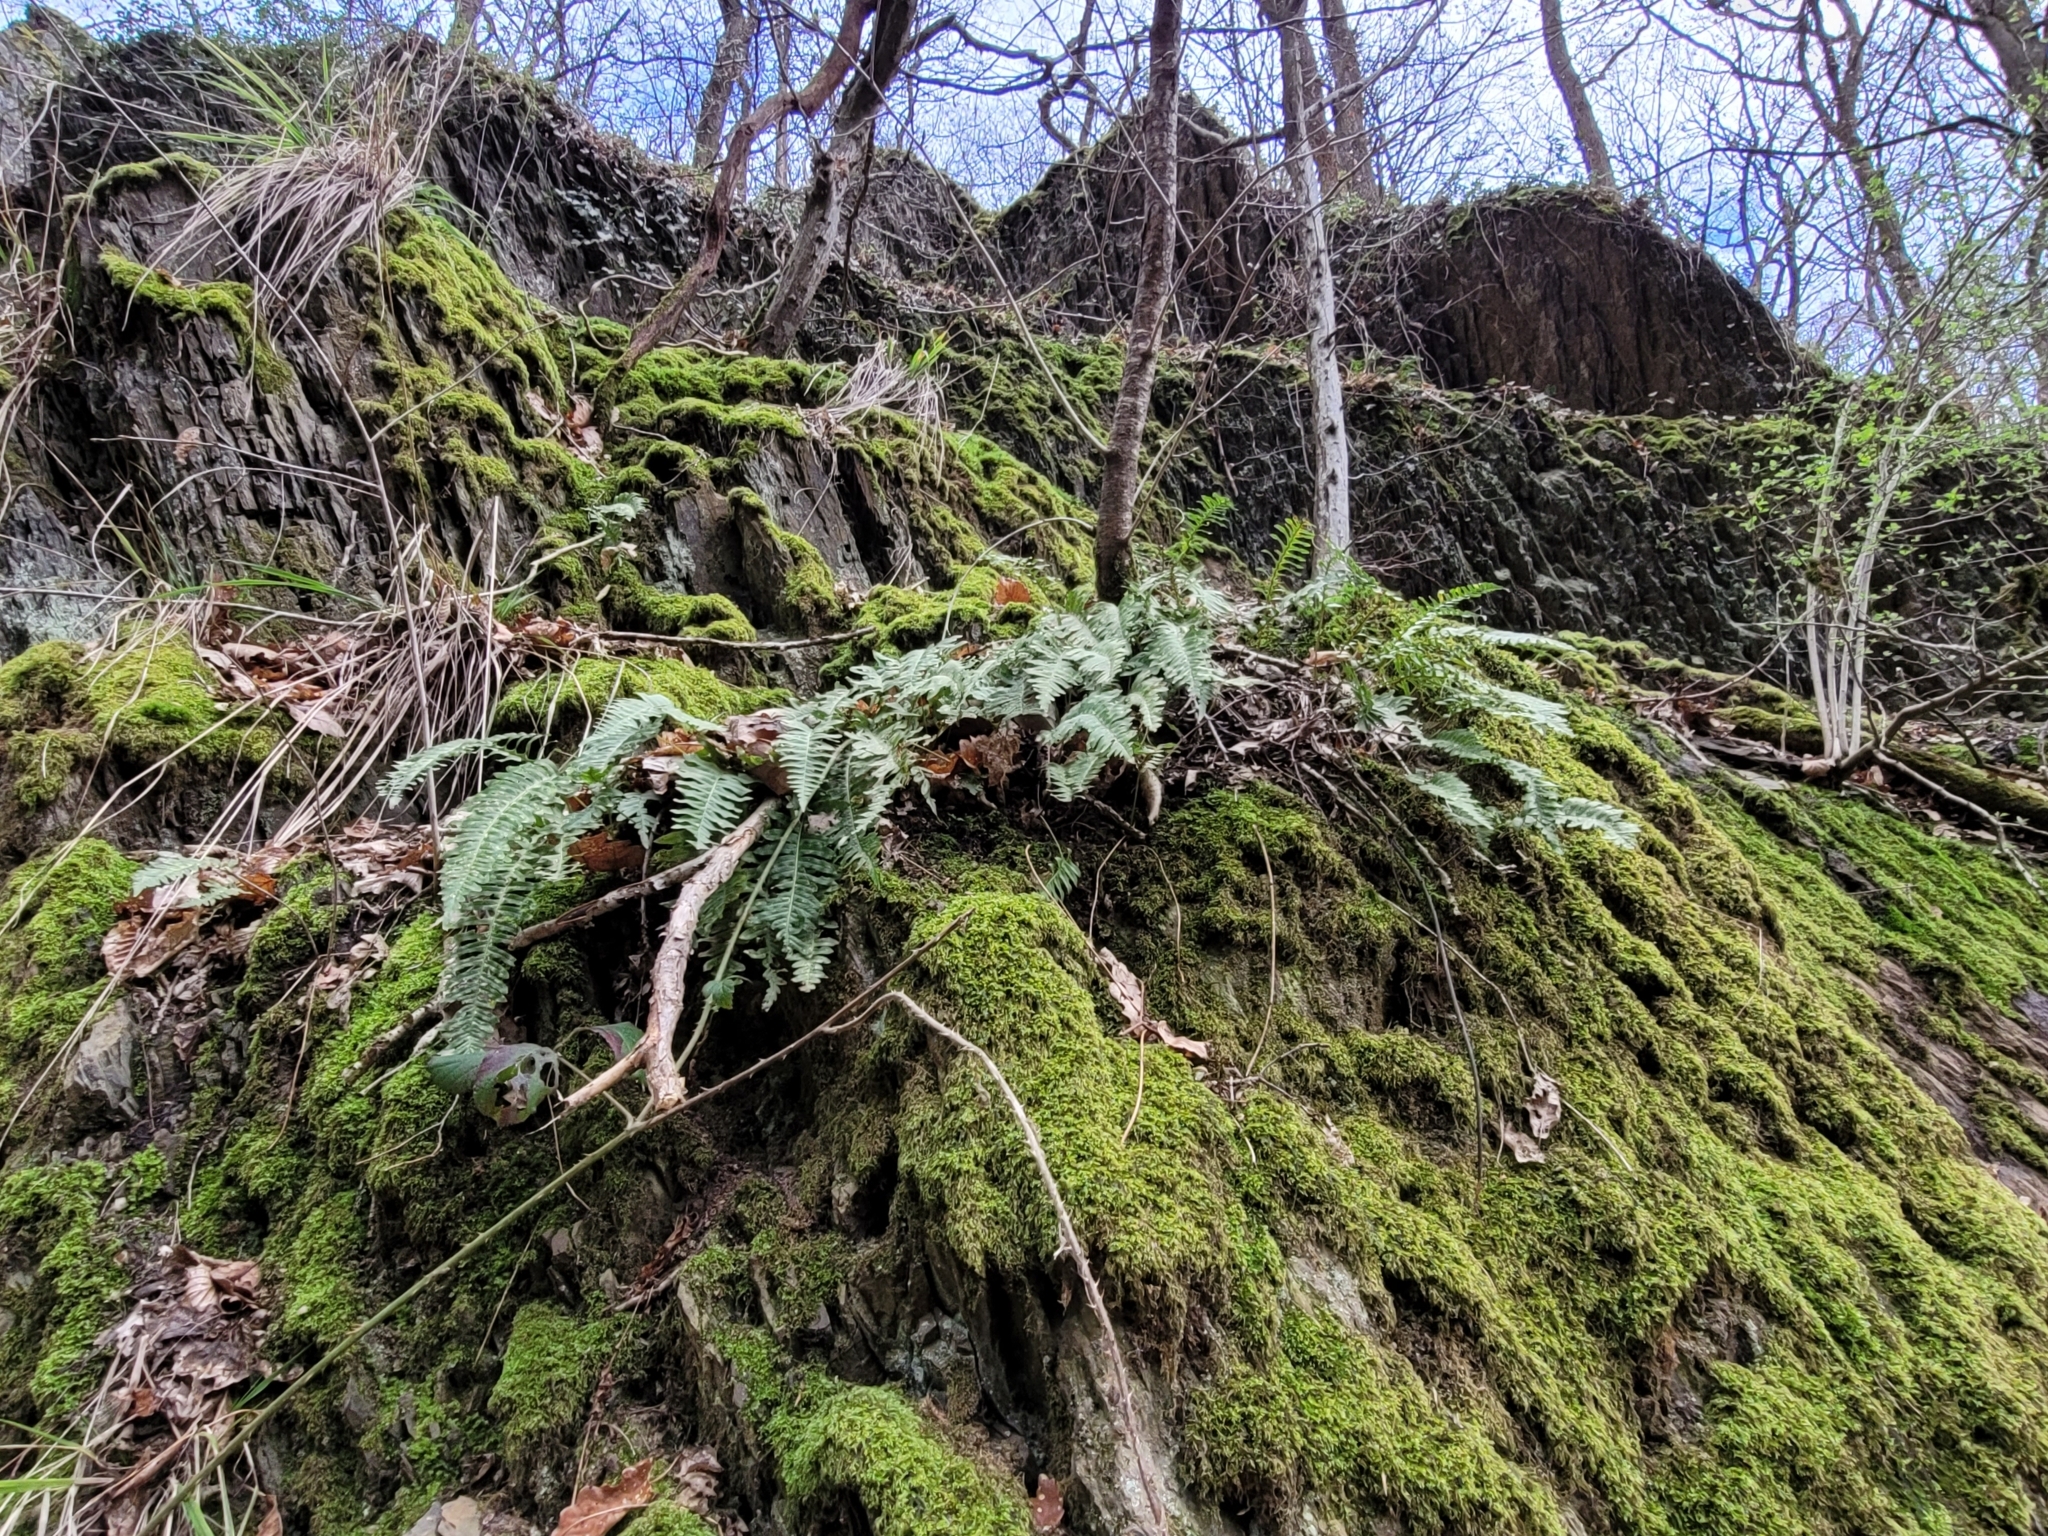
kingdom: Plantae
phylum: Tracheophyta
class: Polypodiopsida
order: Polypodiales
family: Polypodiaceae
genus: Polypodium
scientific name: Polypodium vulgare
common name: Common polypody
